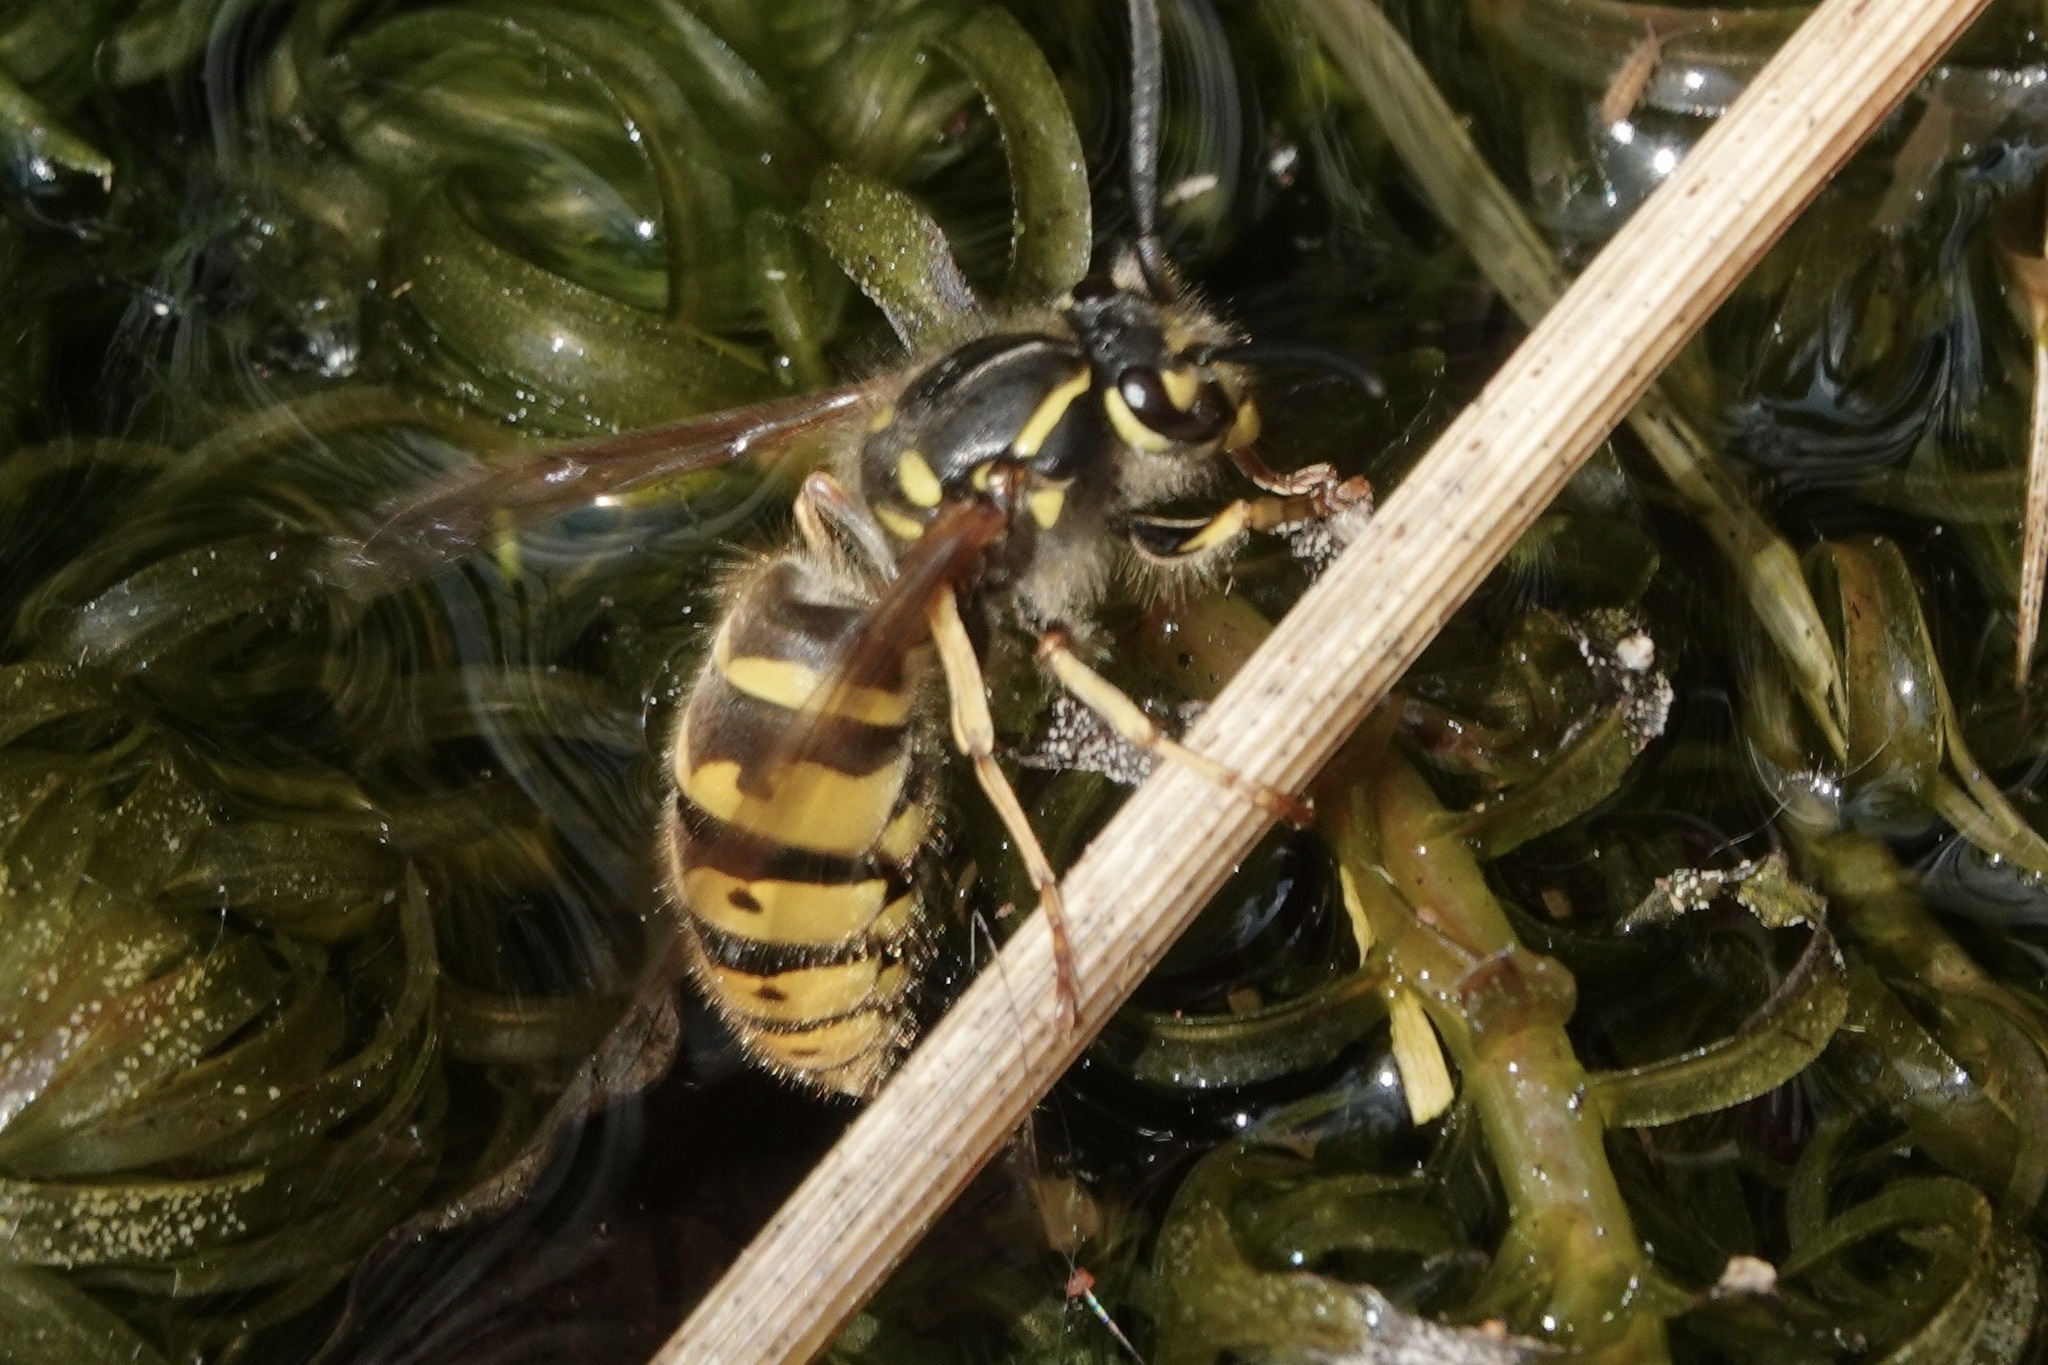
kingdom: Animalia
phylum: Arthropoda
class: Insecta
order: Hymenoptera
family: Vespidae
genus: Vespula
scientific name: Vespula vulgaris
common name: Common wasp
